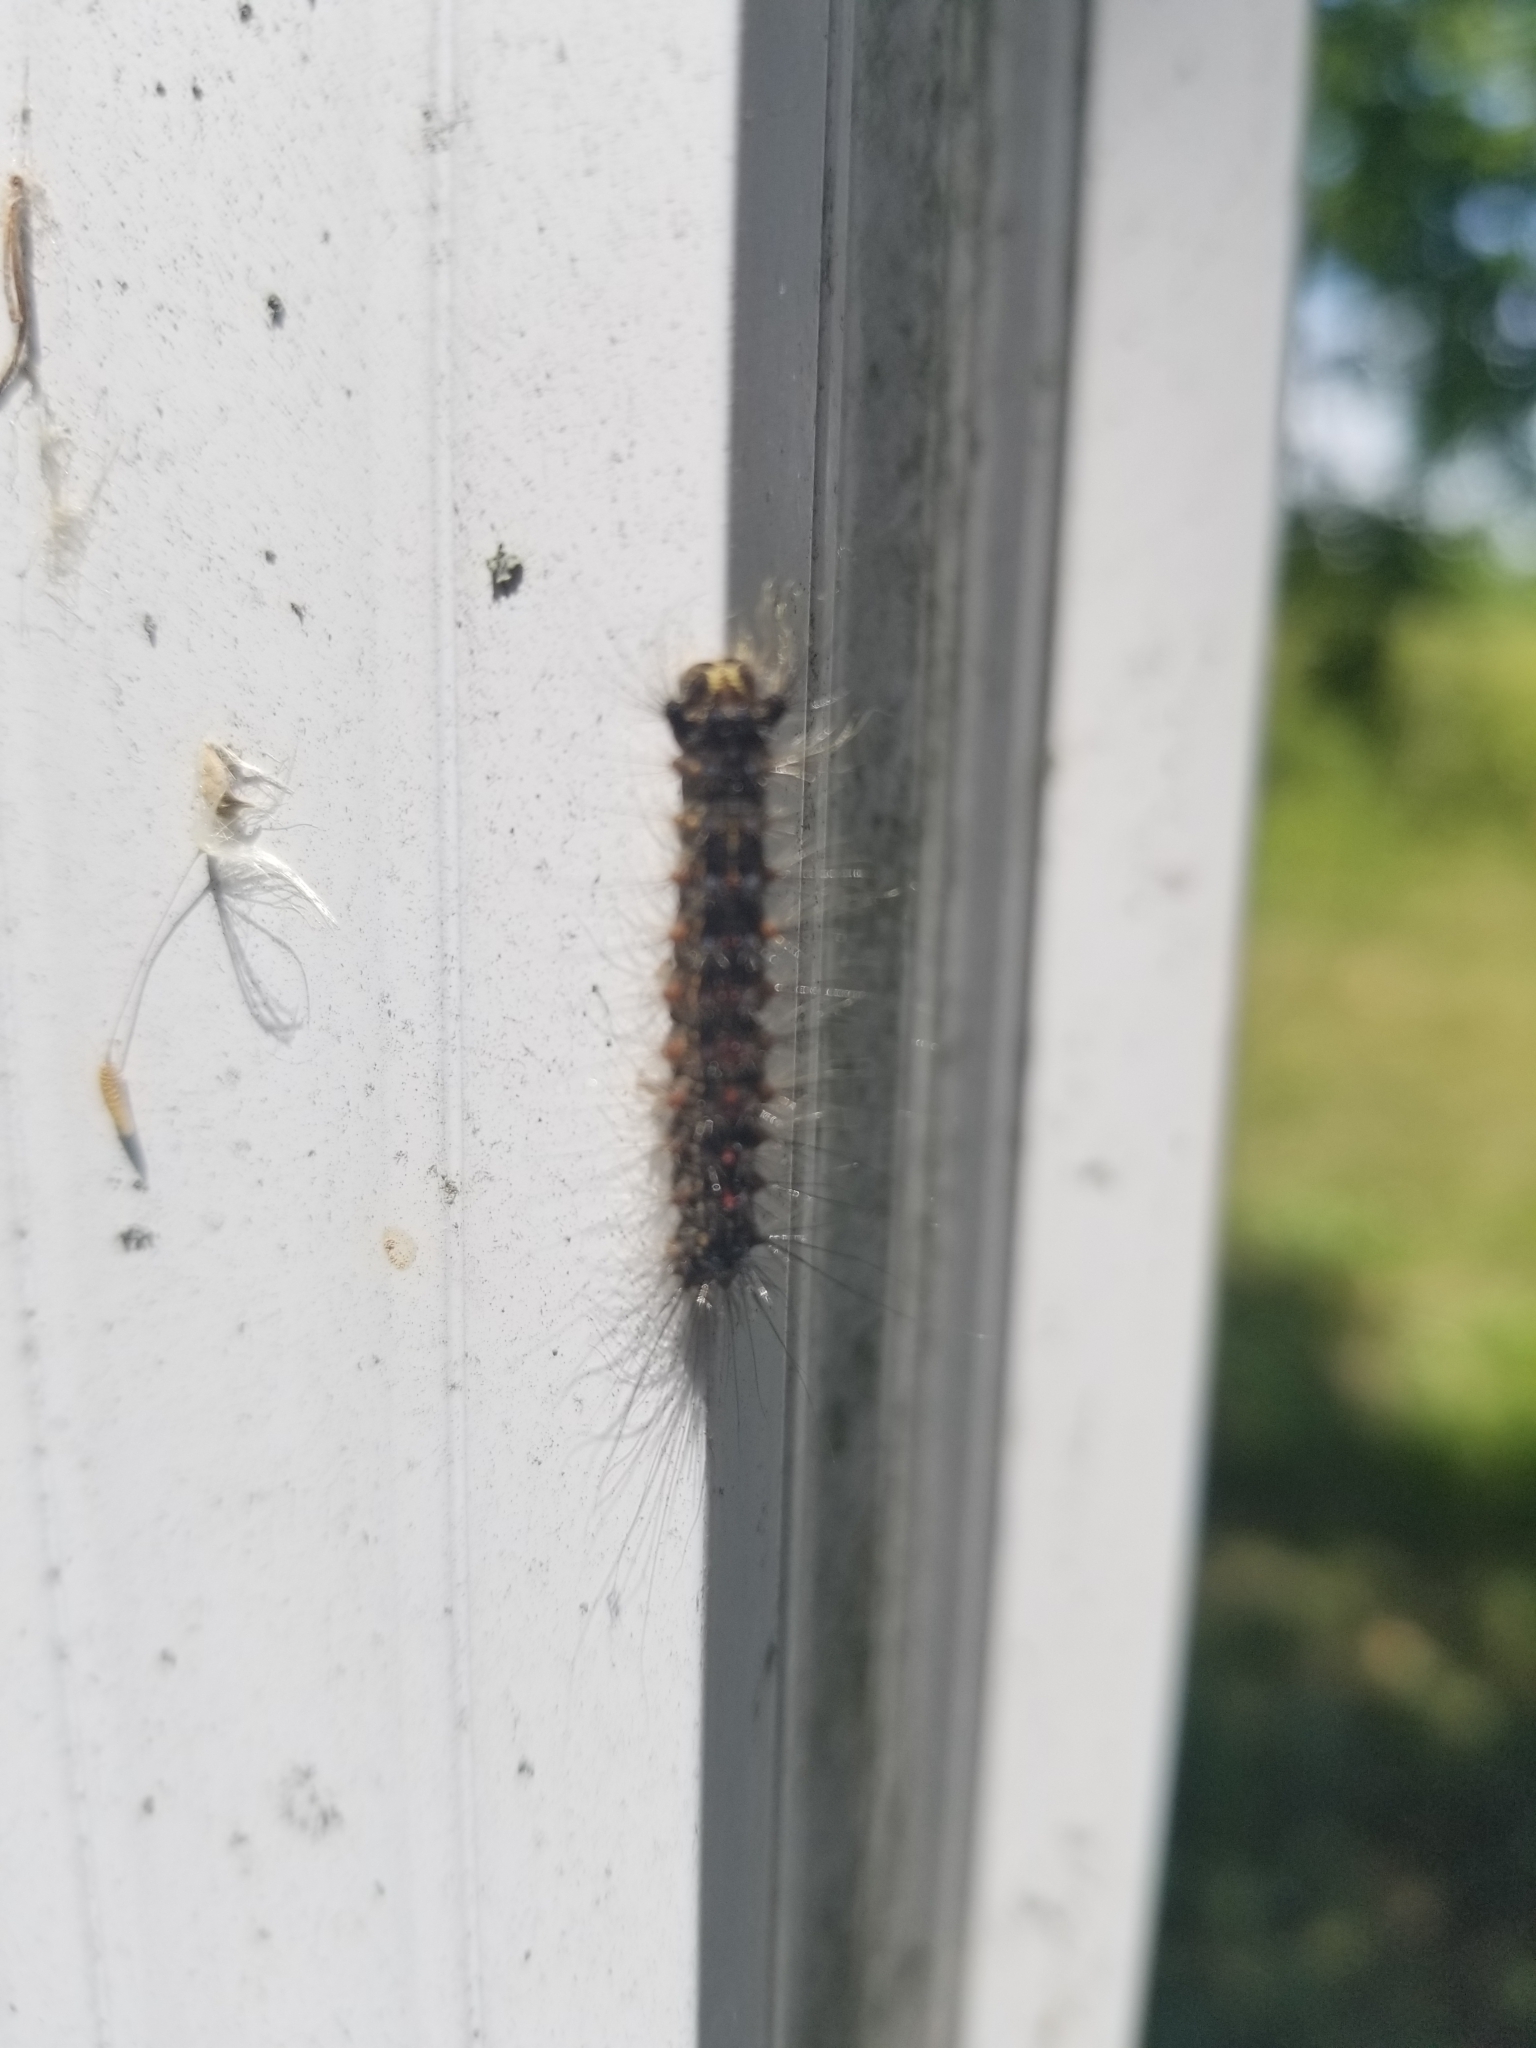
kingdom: Animalia
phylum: Arthropoda
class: Insecta
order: Lepidoptera
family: Erebidae
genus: Lymantria
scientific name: Lymantria dispar
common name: Gypsy moth
